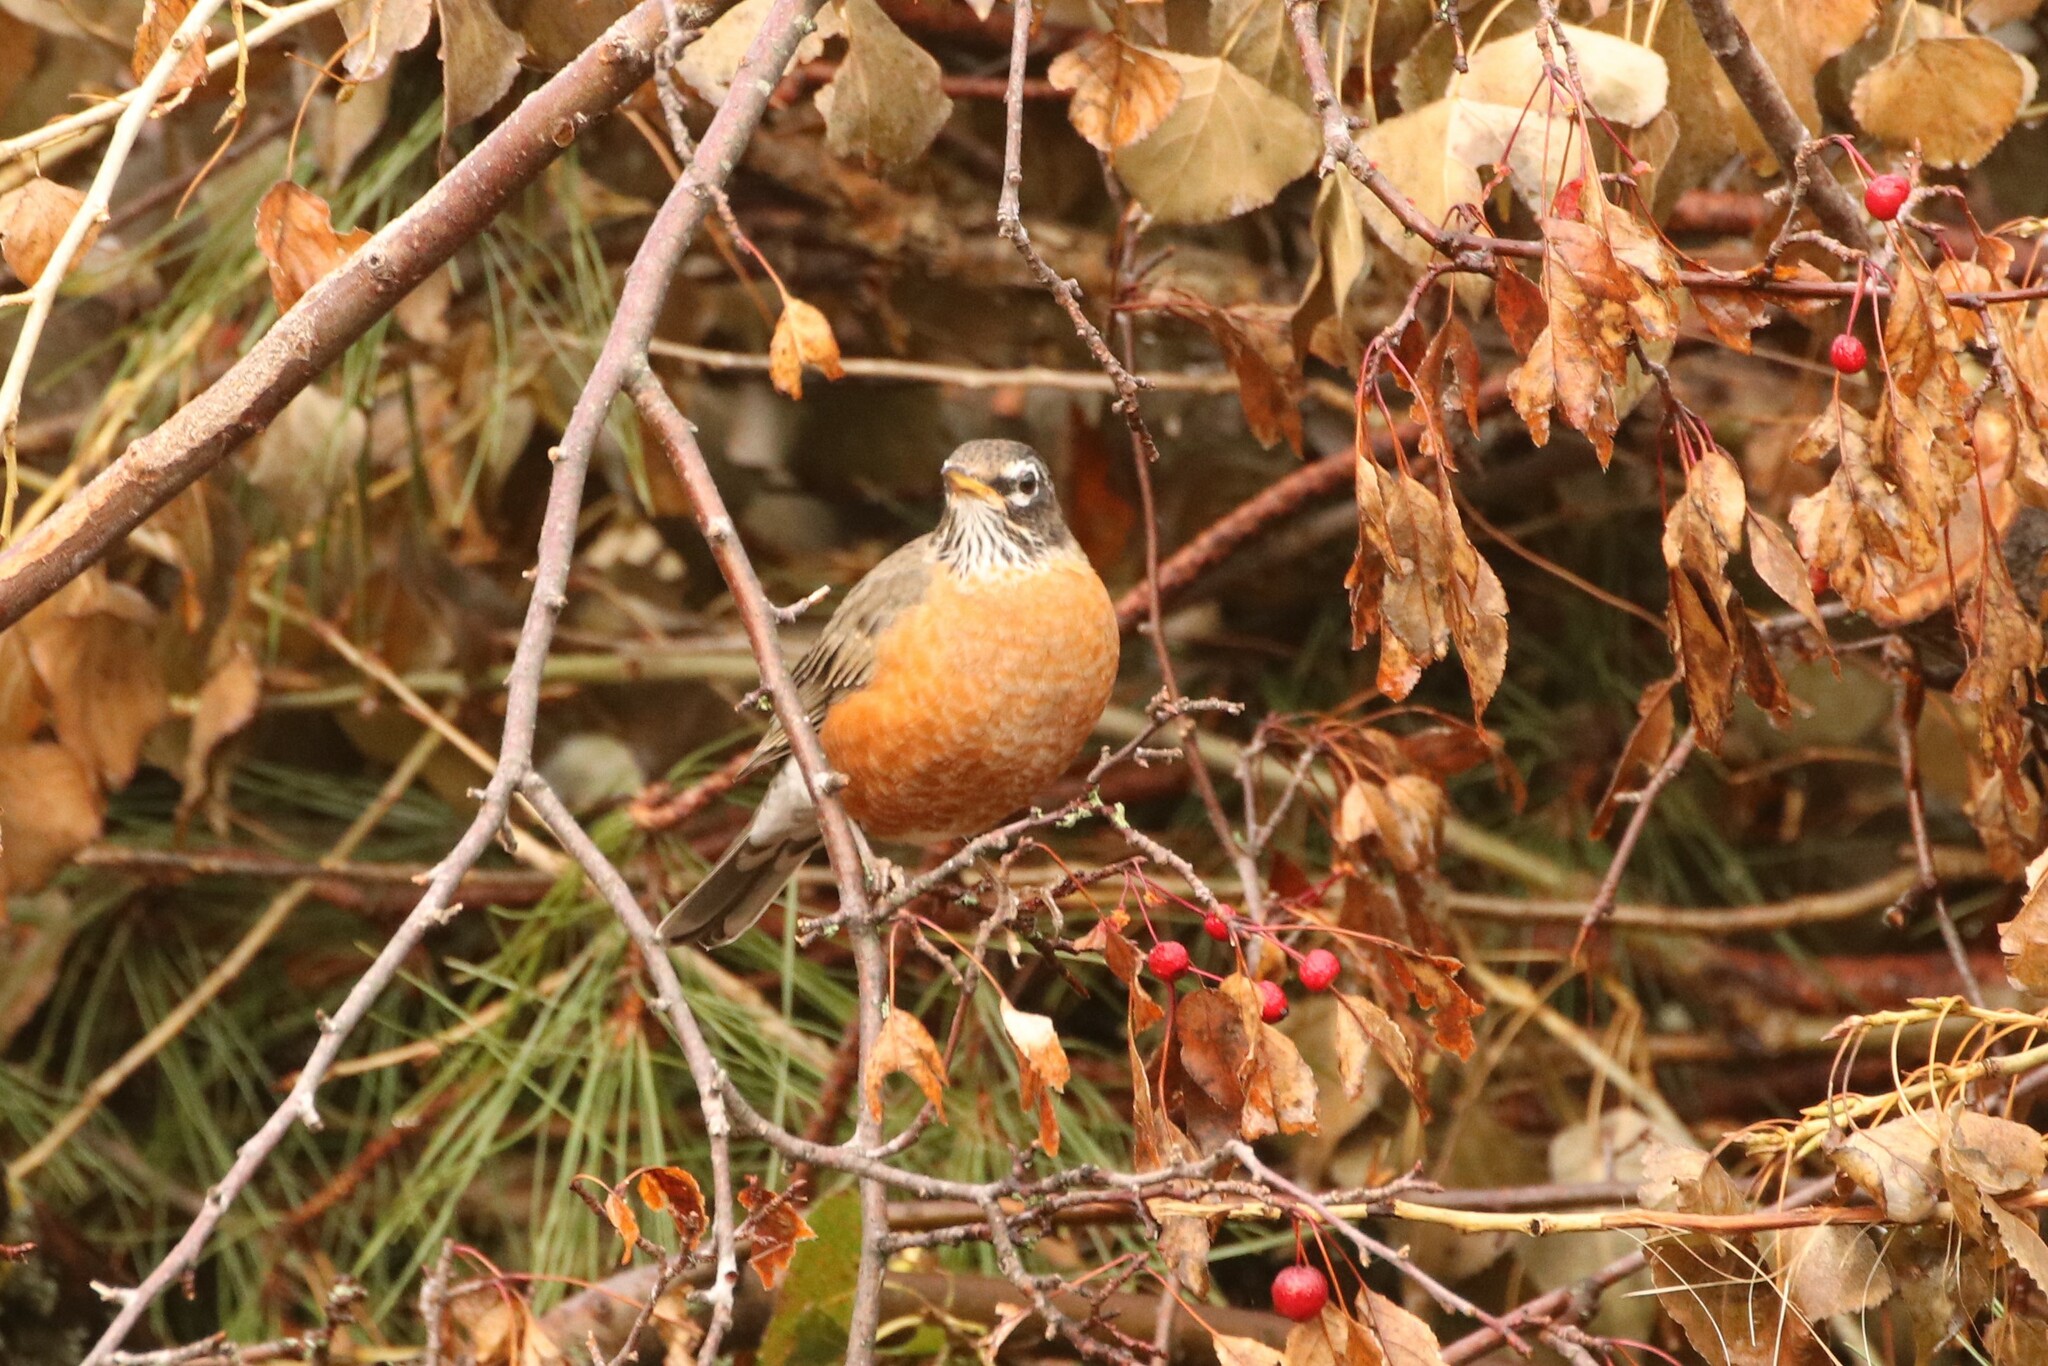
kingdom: Animalia
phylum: Chordata
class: Aves
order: Passeriformes
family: Turdidae
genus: Turdus
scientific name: Turdus migratorius
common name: American robin
